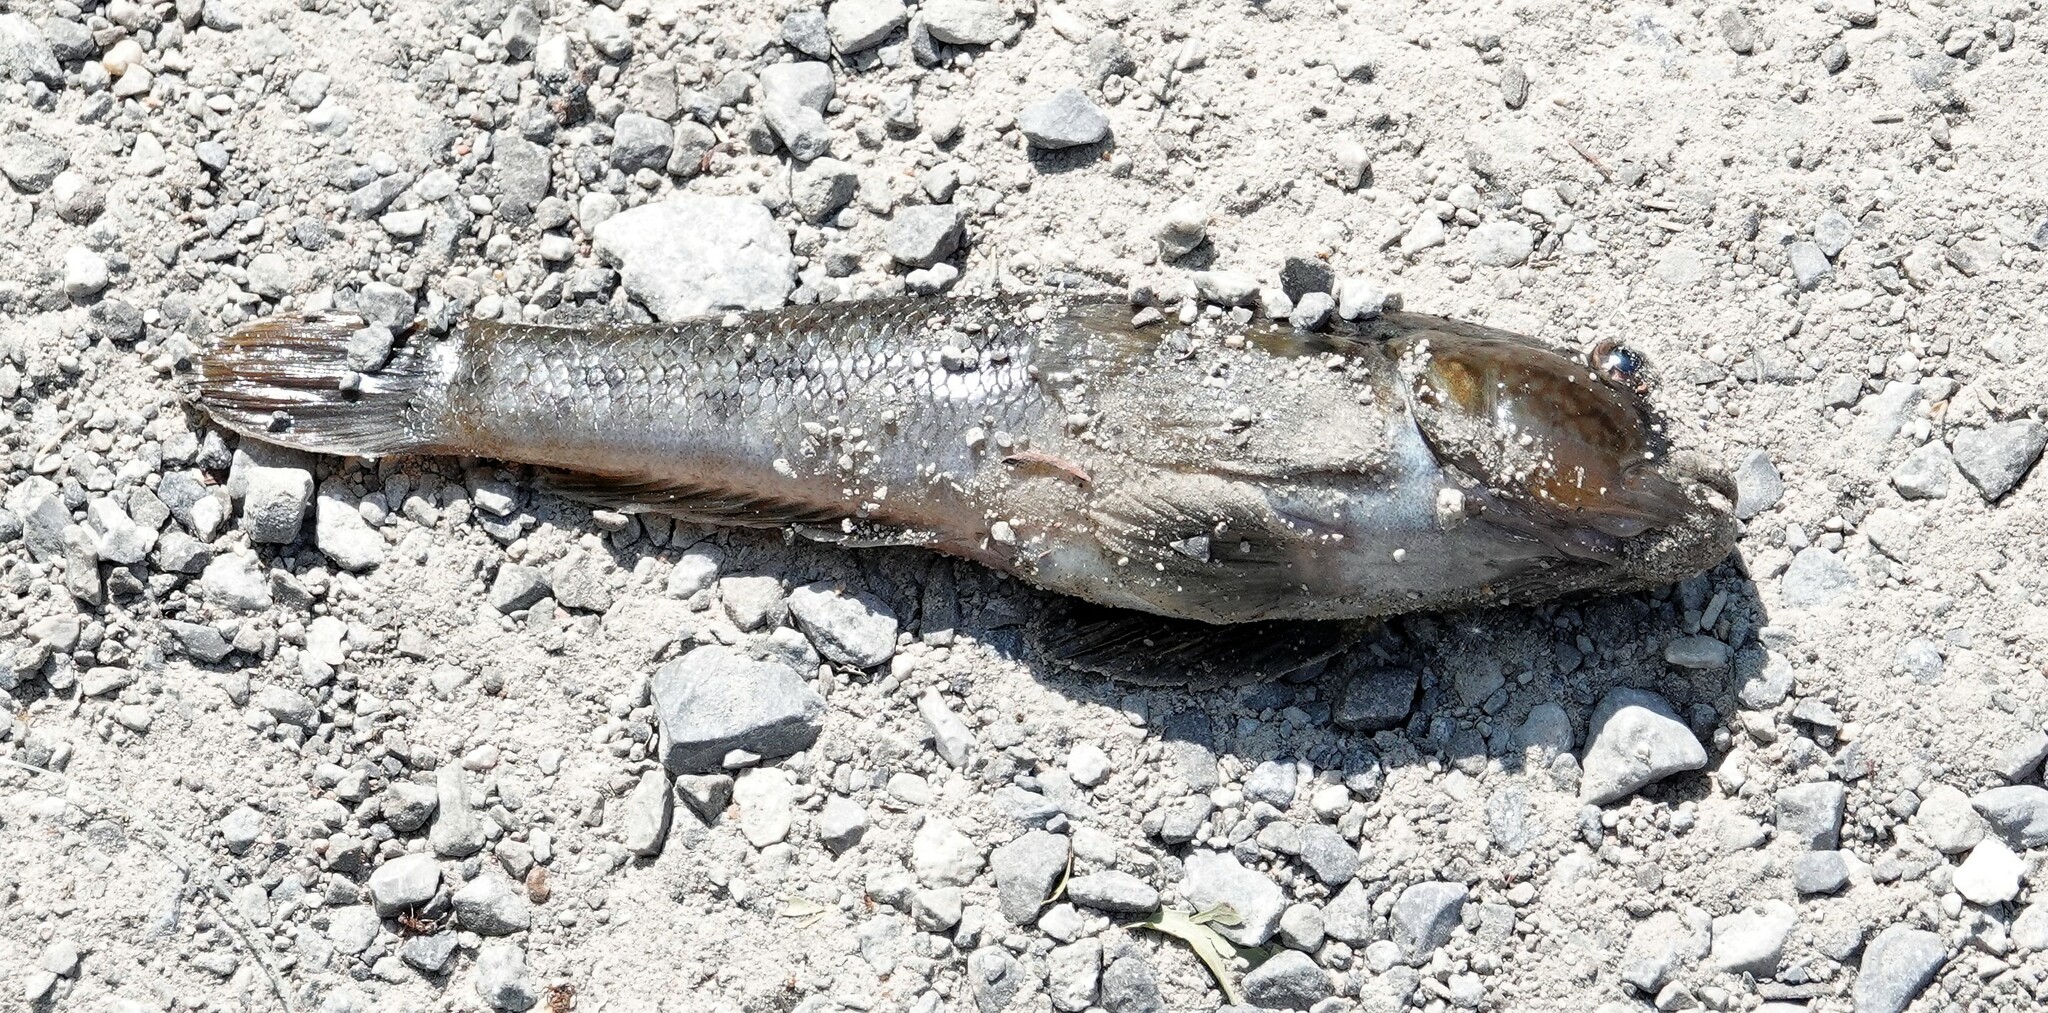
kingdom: Animalia
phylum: Chordata
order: Perciformes
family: Gobiidae
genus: Neogobius
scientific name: Neogobius melanostomus
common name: Round goby
